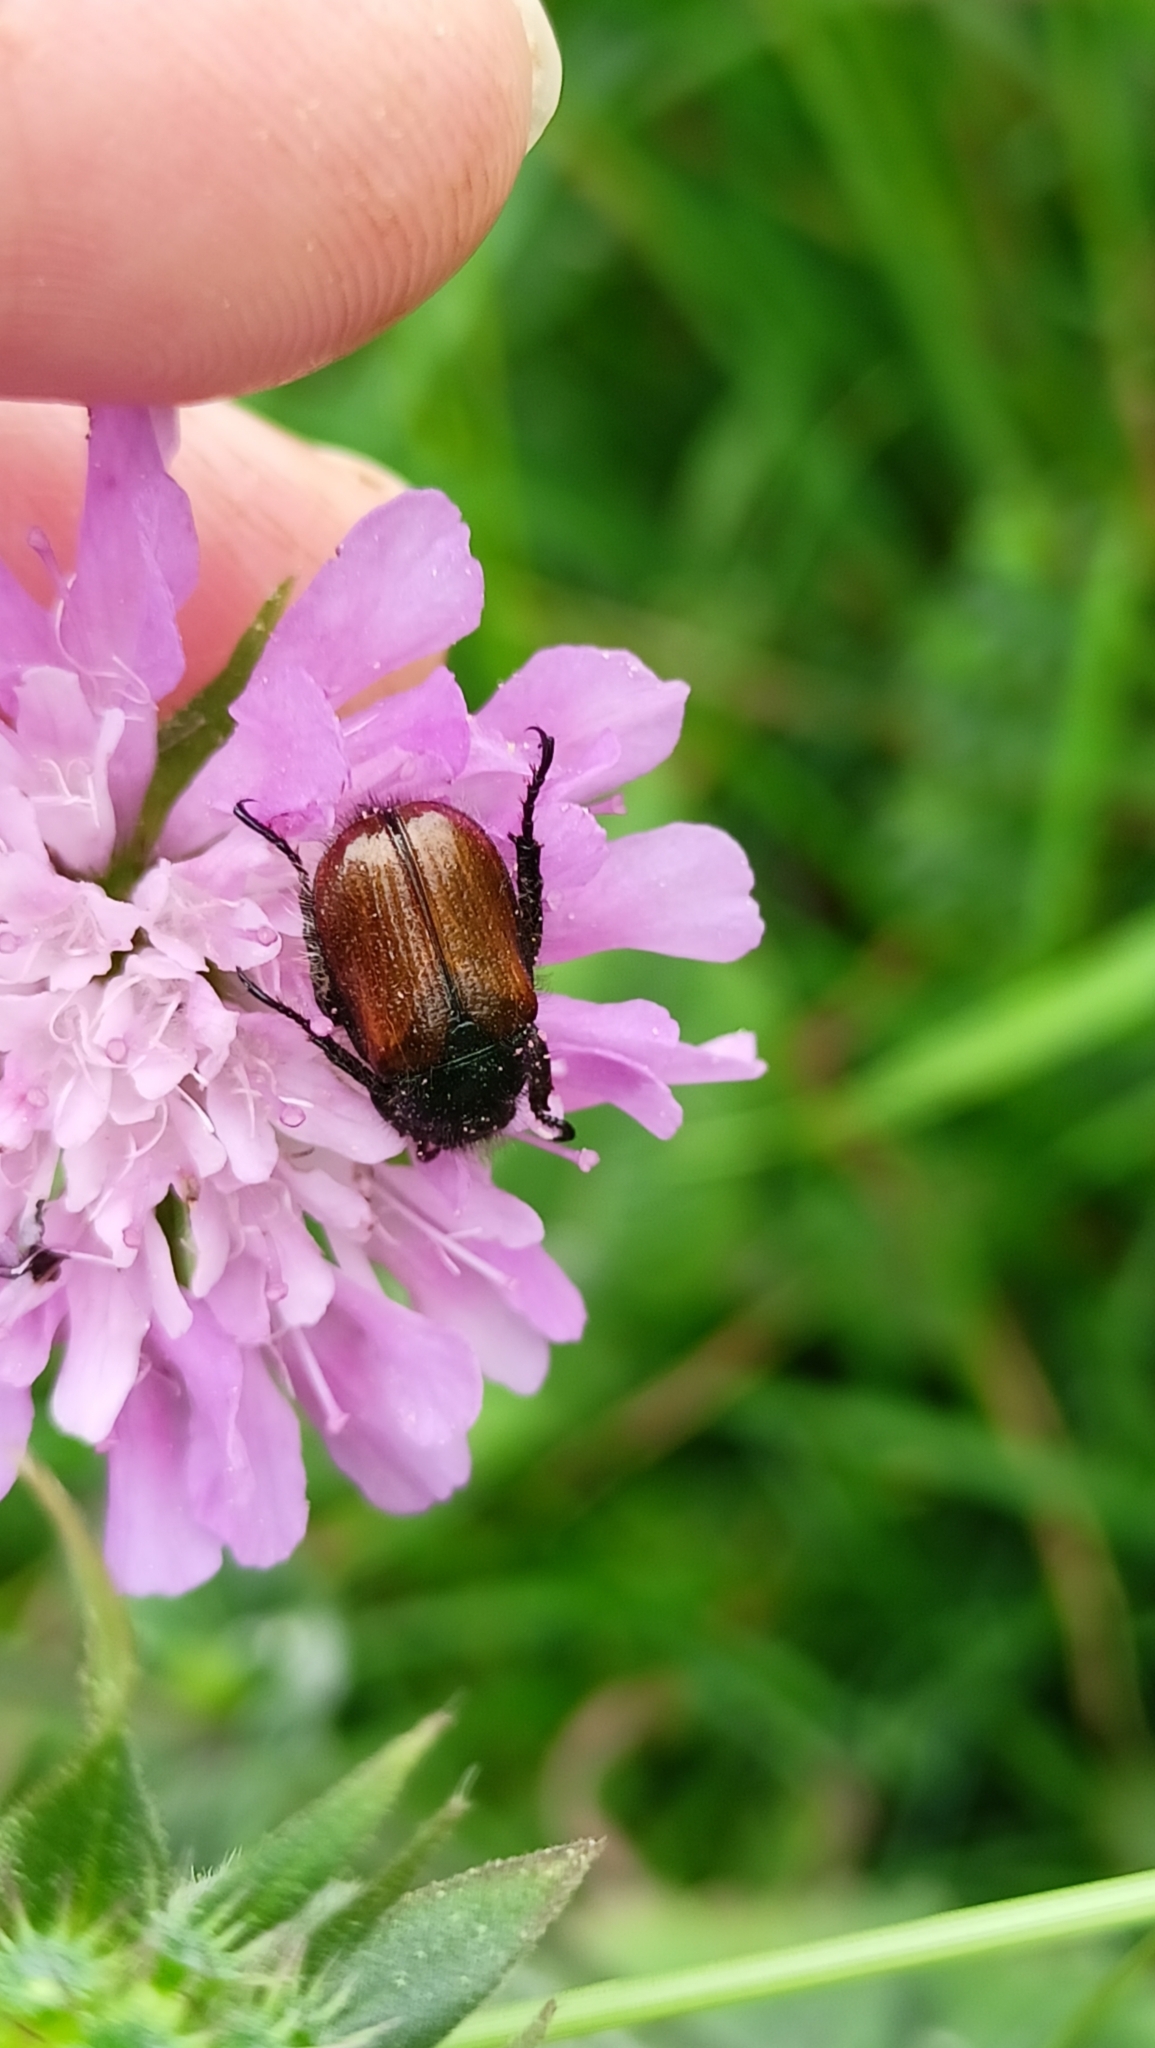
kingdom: Animalia
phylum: Arthropoda
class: Insecta
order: Coleoptera
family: Scarabaeidae
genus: Phyllopertha
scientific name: Phyllopertha horticola
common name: Garden chafer
